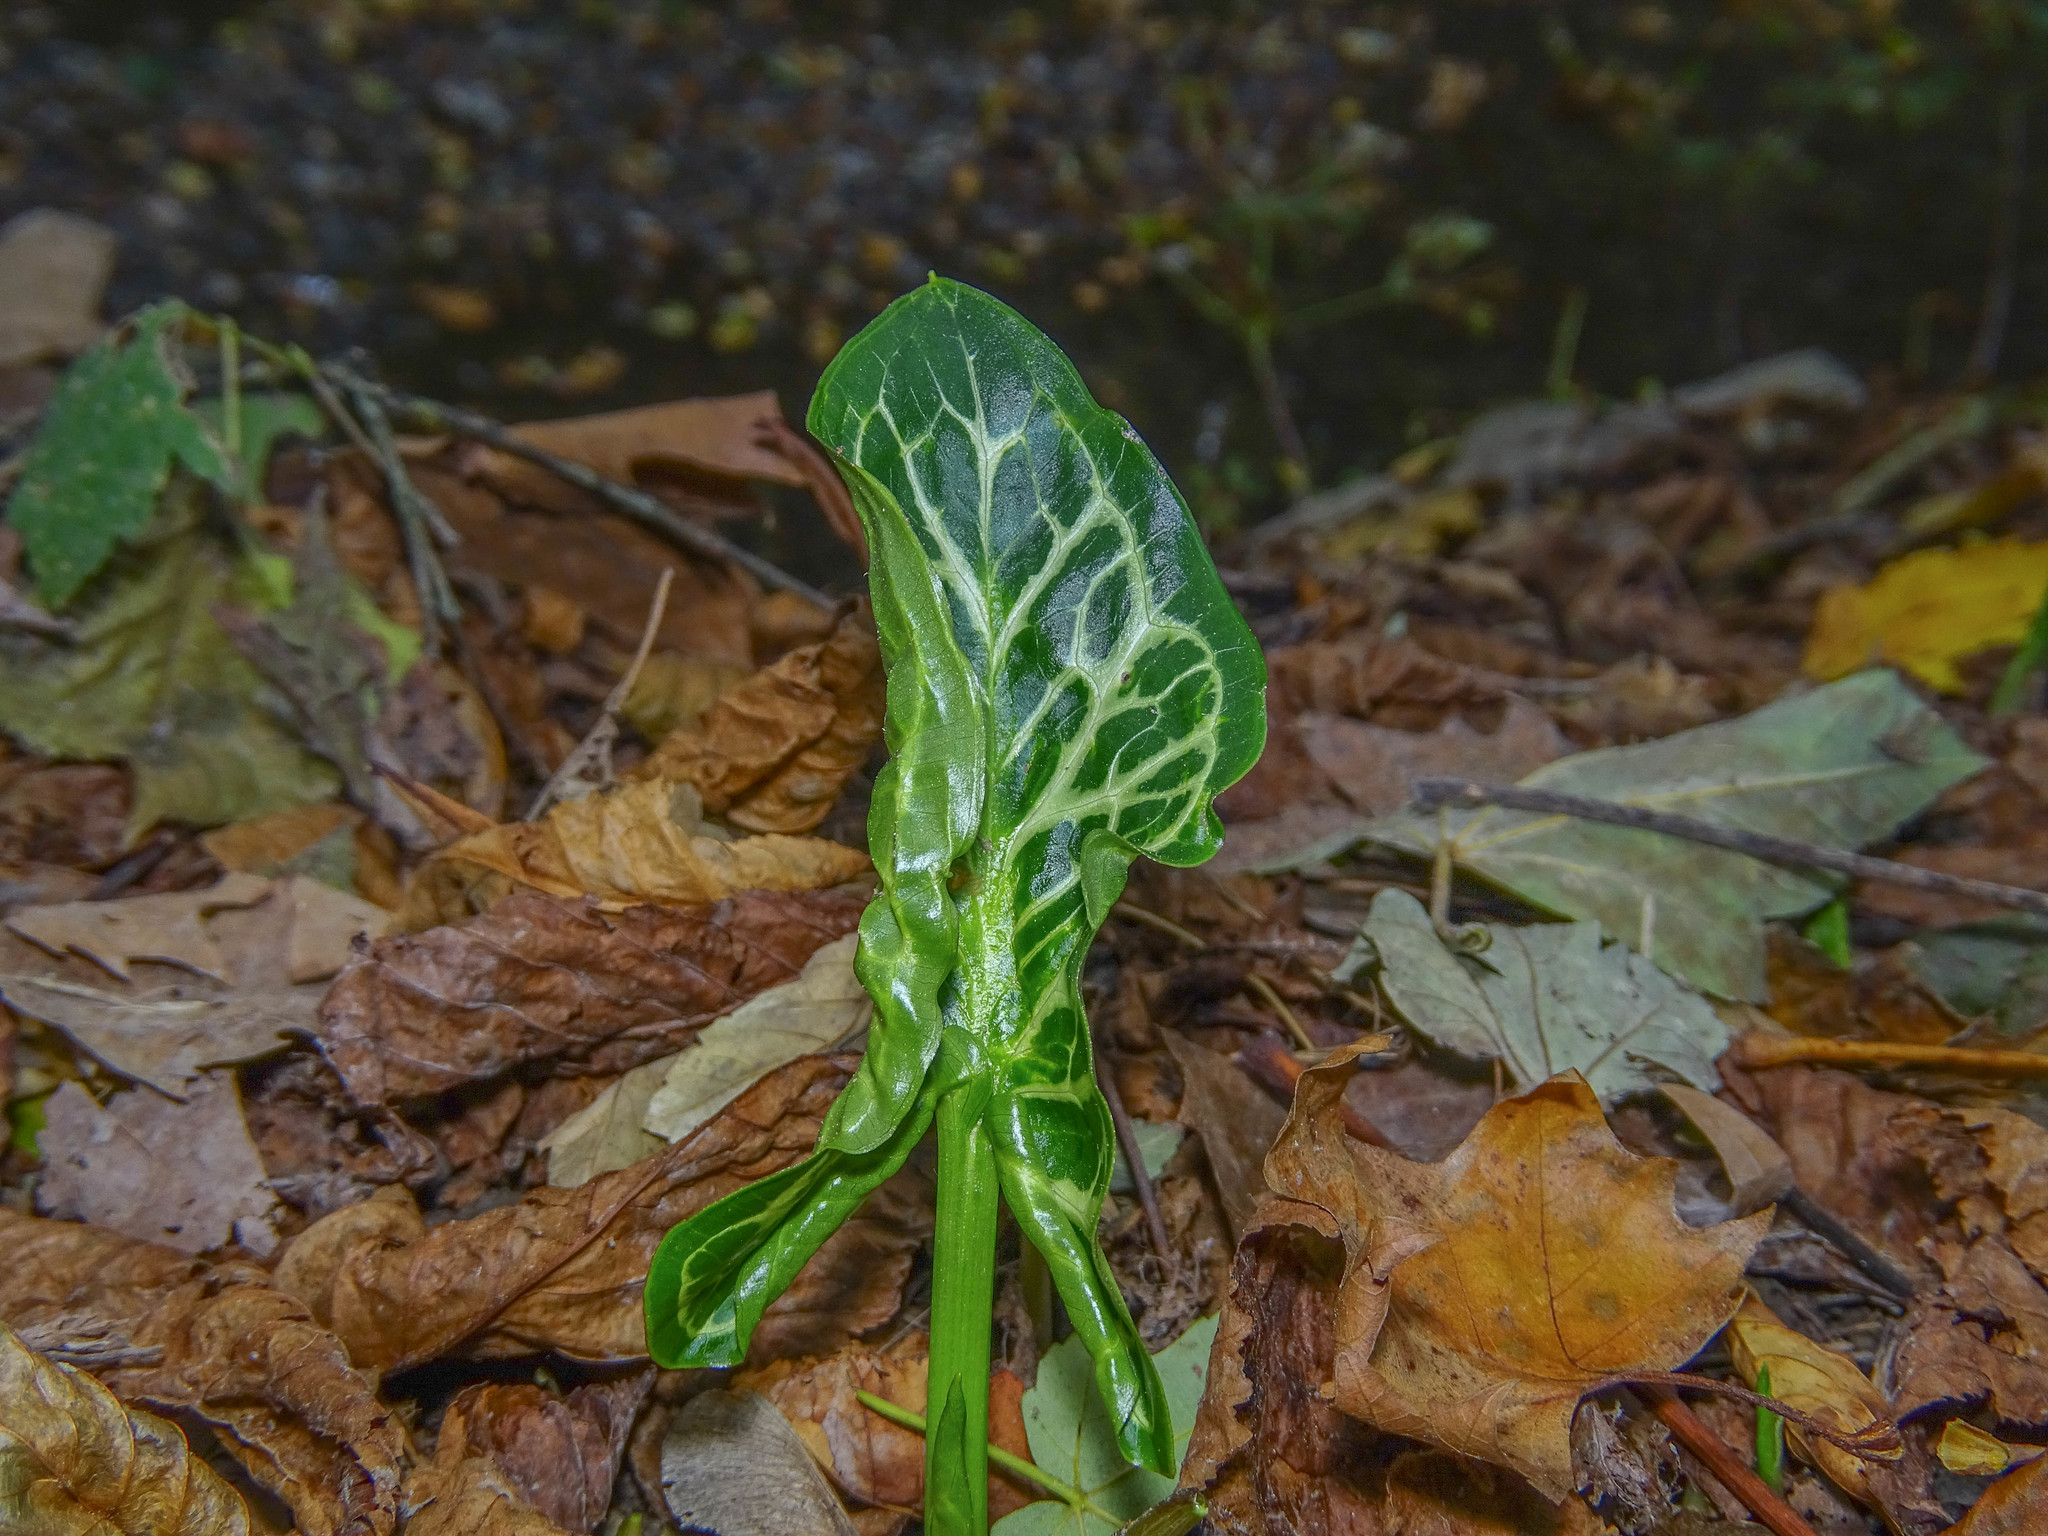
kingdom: Plantae
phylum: Tracheophyta
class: Liliopsida
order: Alismatales
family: Araceae
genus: Arum
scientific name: Arum italicum
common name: Italian lords-and-ladies
